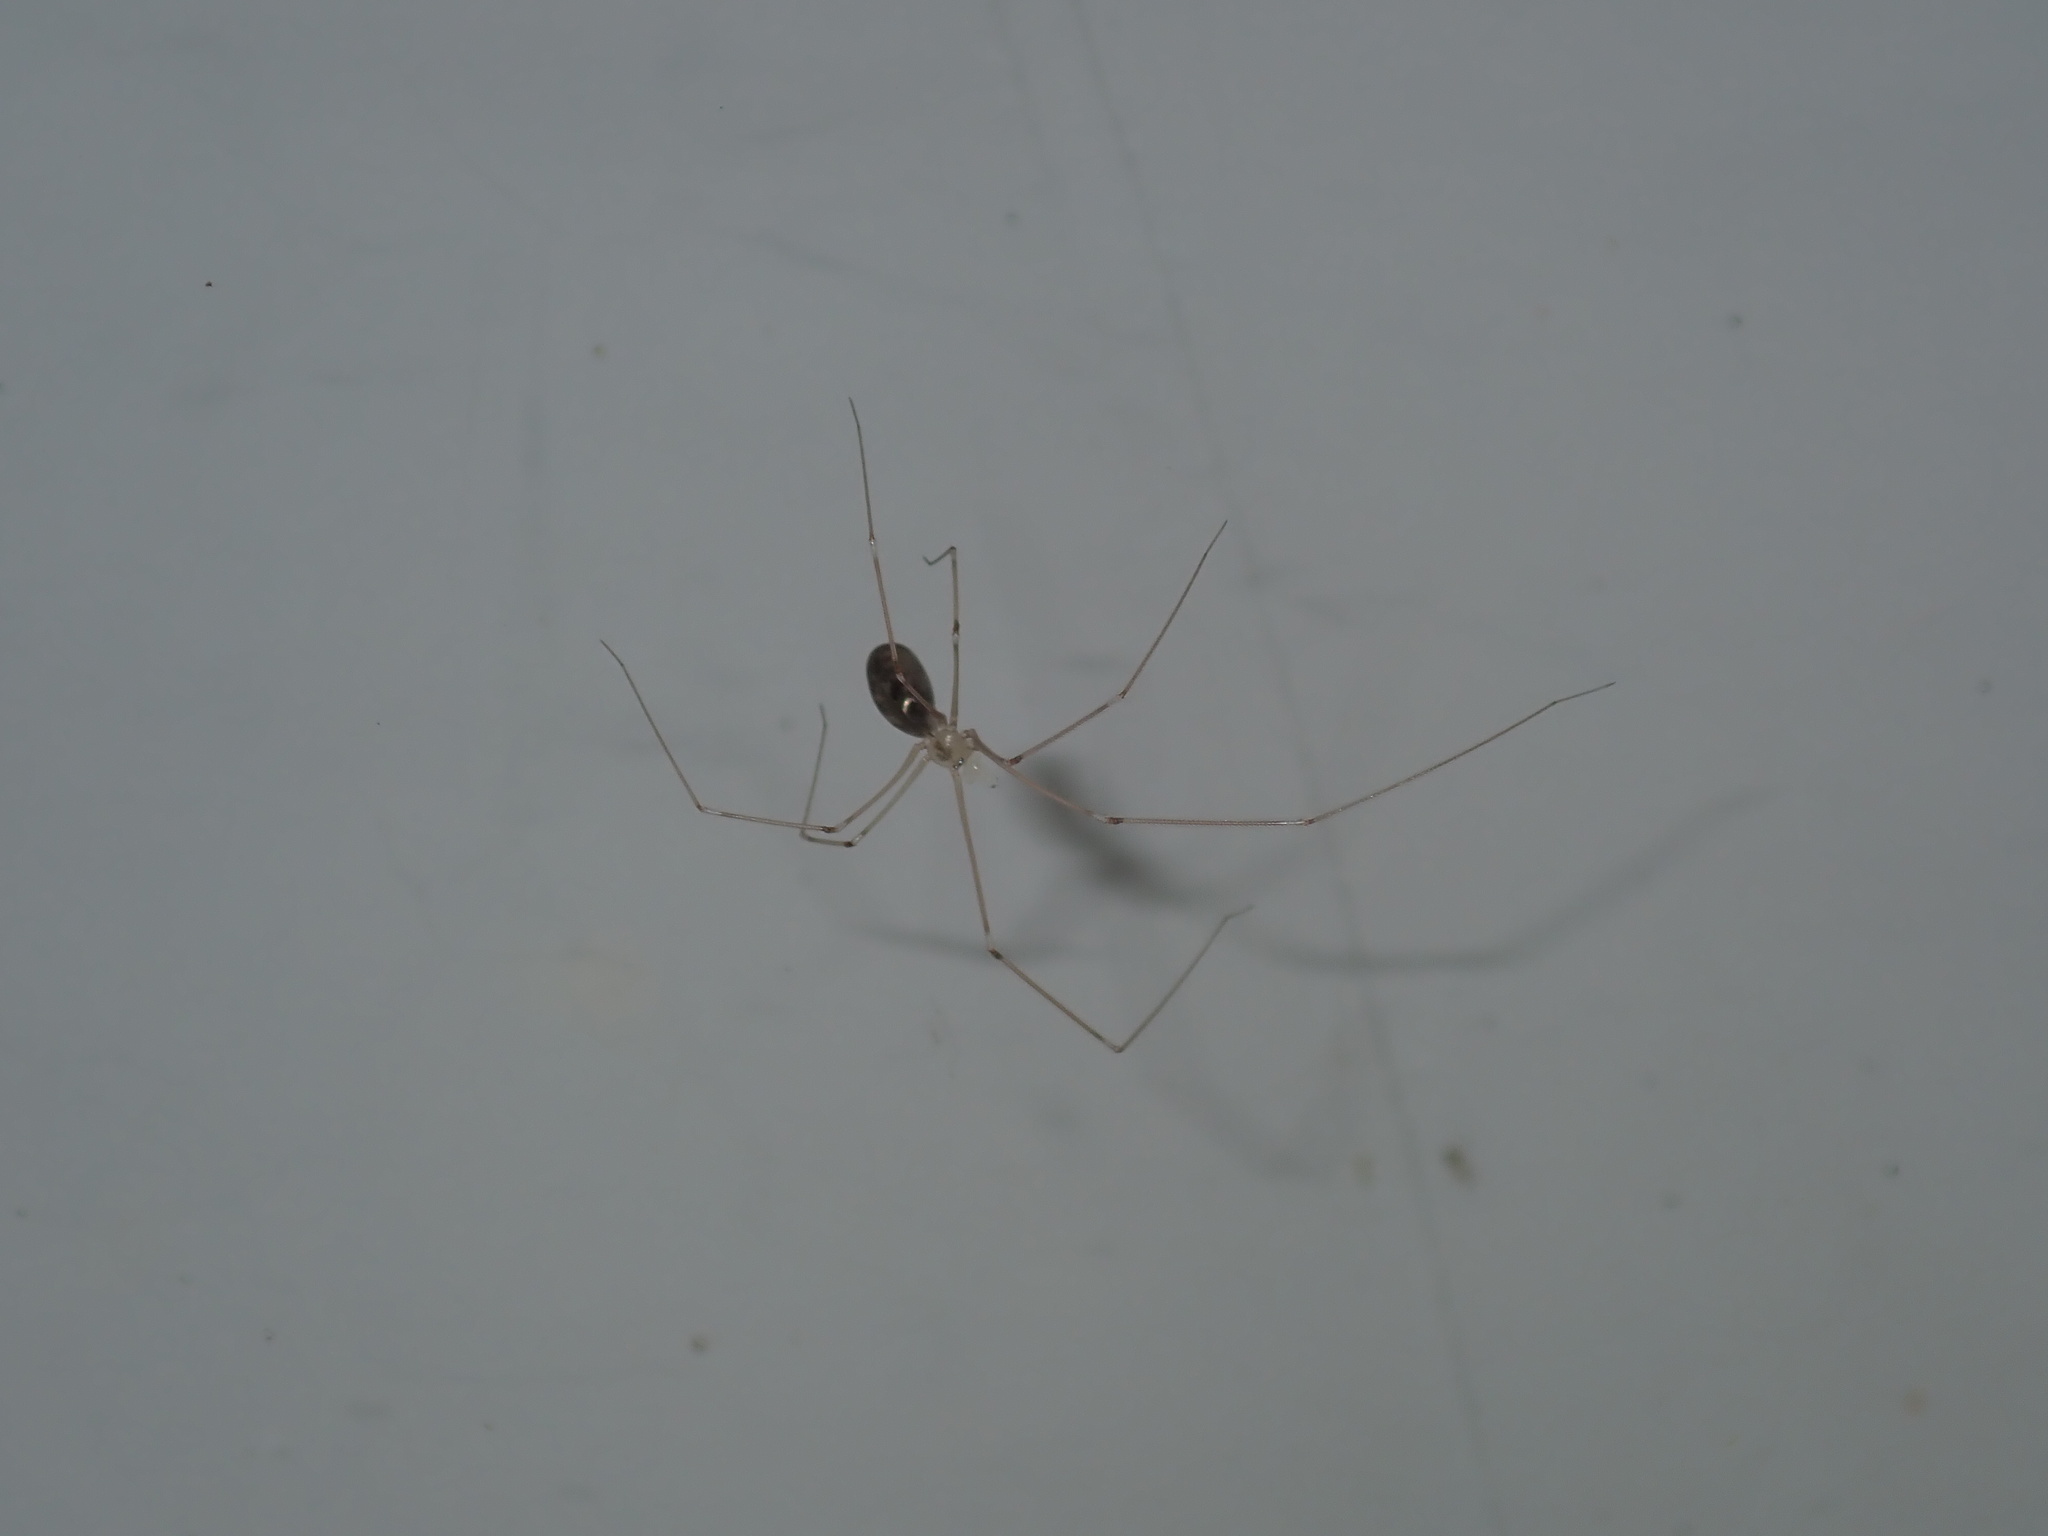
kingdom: Animalia
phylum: Arthropoda
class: Arachnida
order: Araneae
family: Pholcidae
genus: Pholcus
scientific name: Pholcus phalangioides
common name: Longbodied cellar spider
